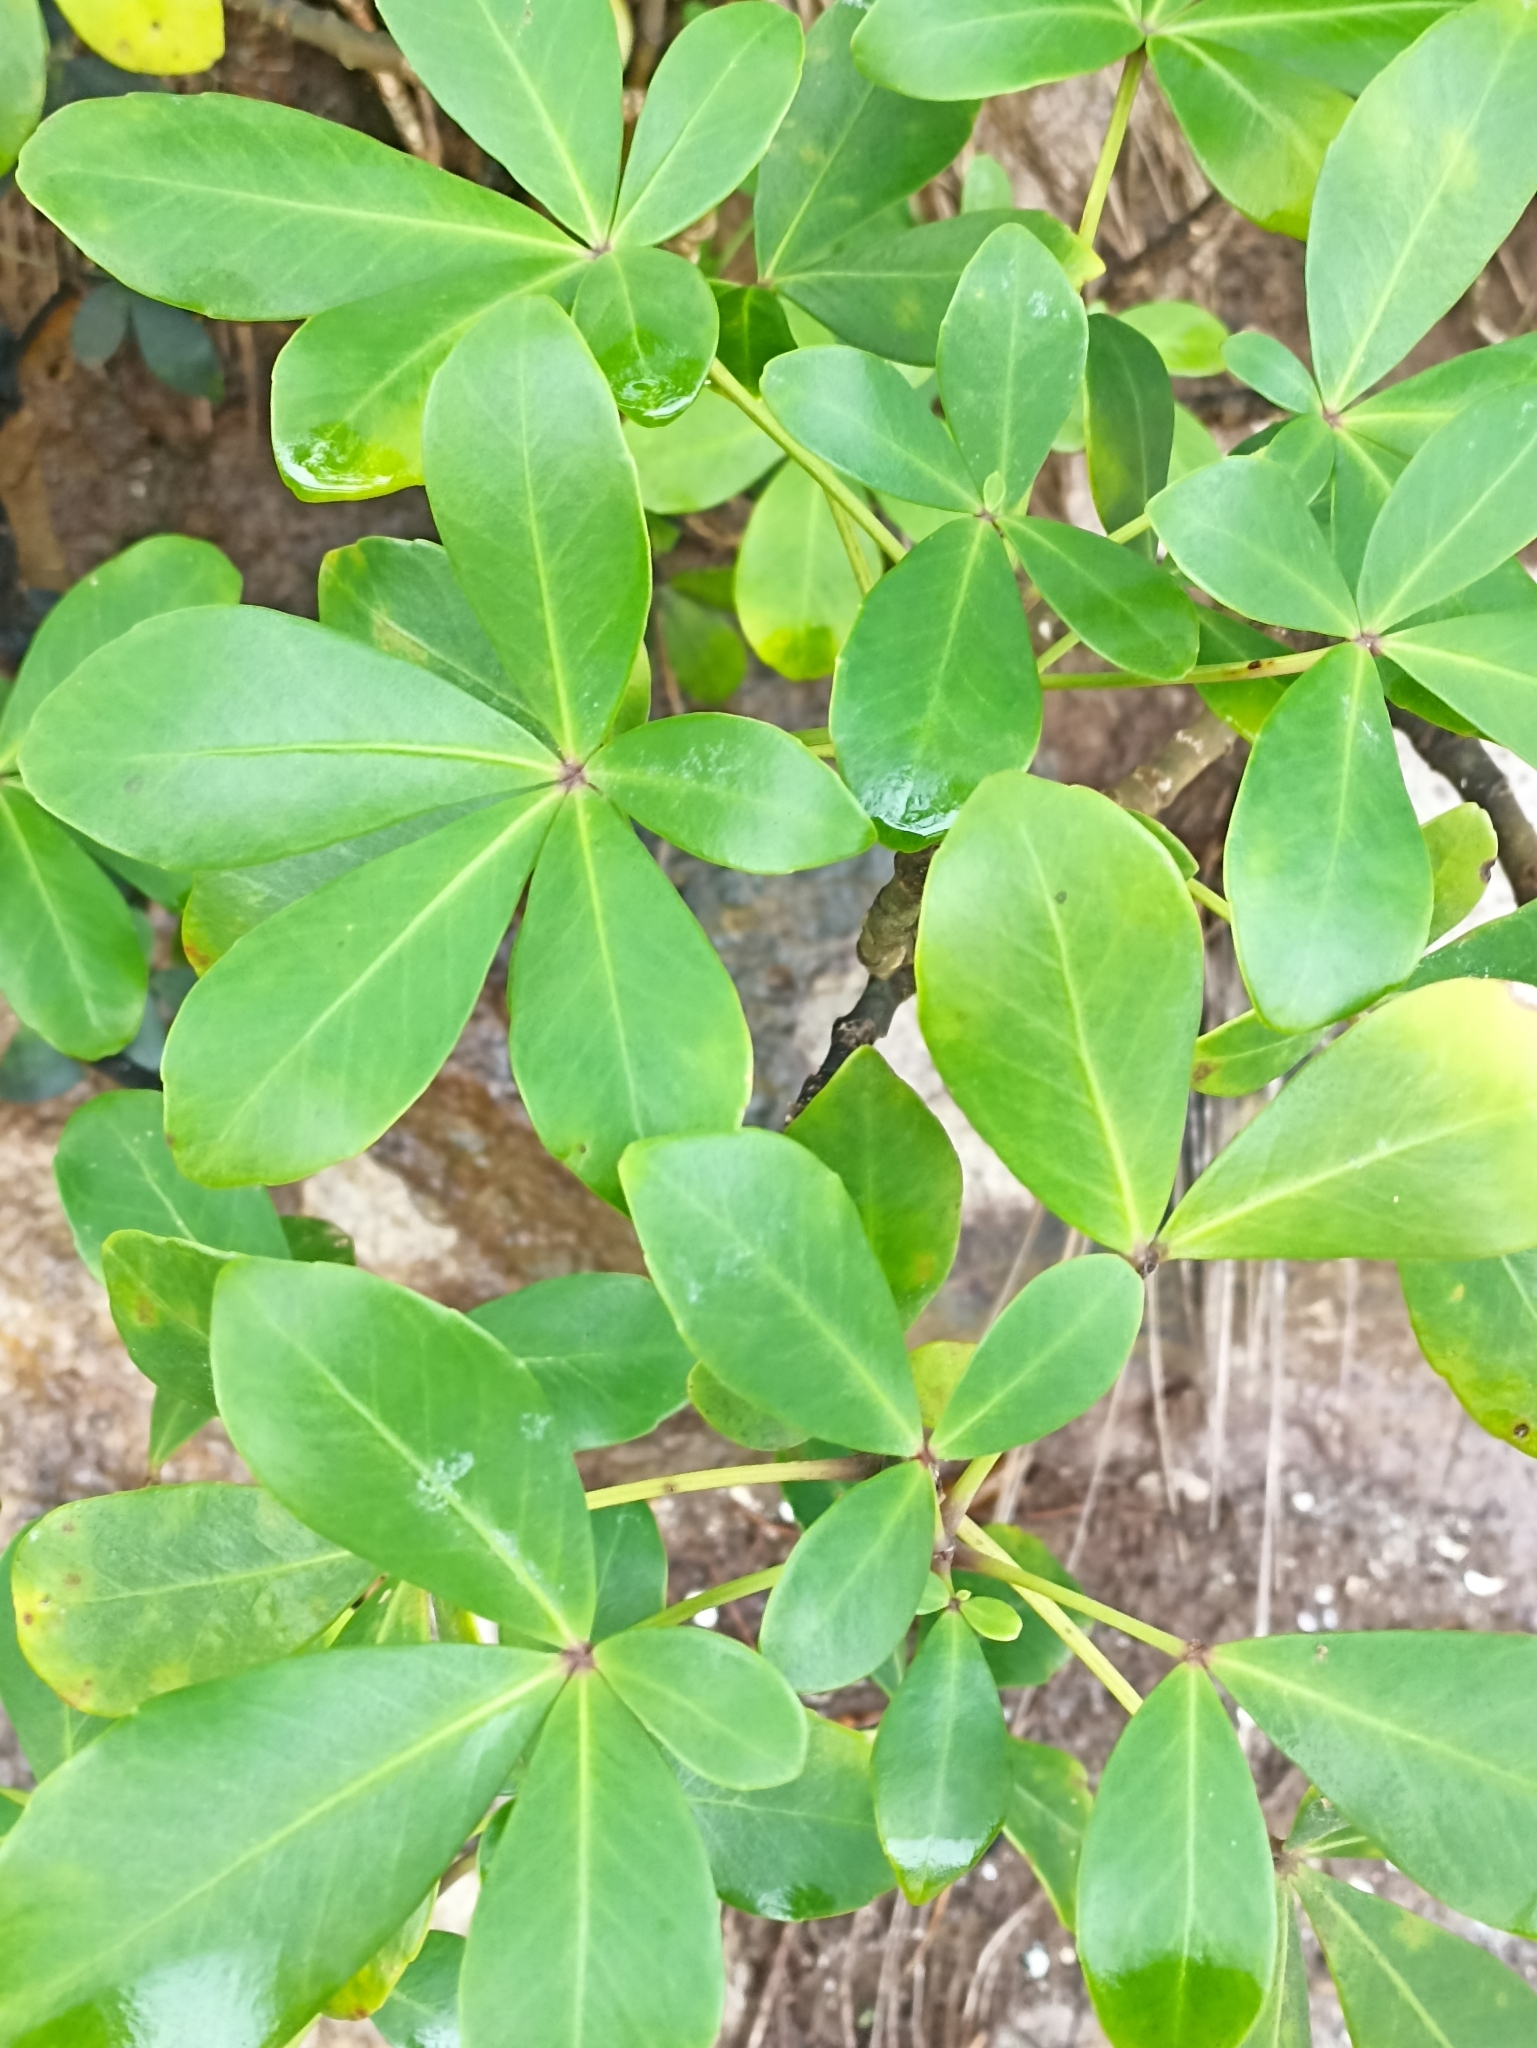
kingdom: Plantae
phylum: Tracheophyta
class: Magnoliopsida
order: Apiales
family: Araliaceae
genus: Pseudopanax
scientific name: Pseudopanax lessonii
